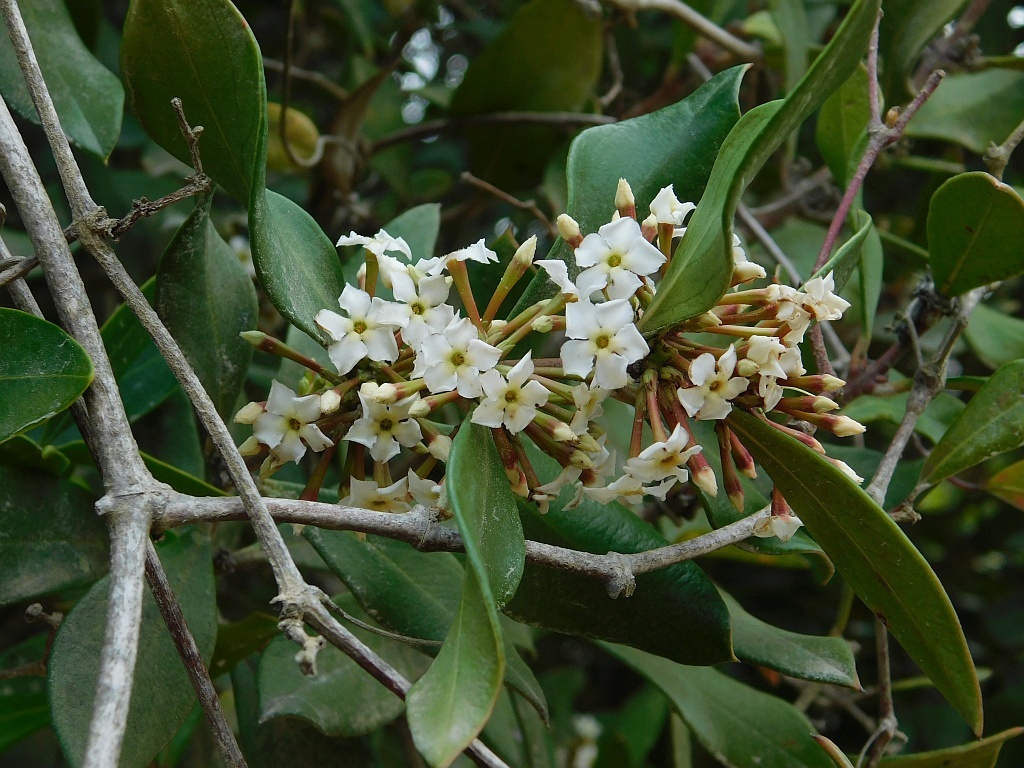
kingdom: Plantae
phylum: Tracheophyta
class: Magnoliopsida
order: Gentianales
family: Apocynaceae
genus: Acokanthera
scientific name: Acokanthera oppositifolia
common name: Bushman's-poison
